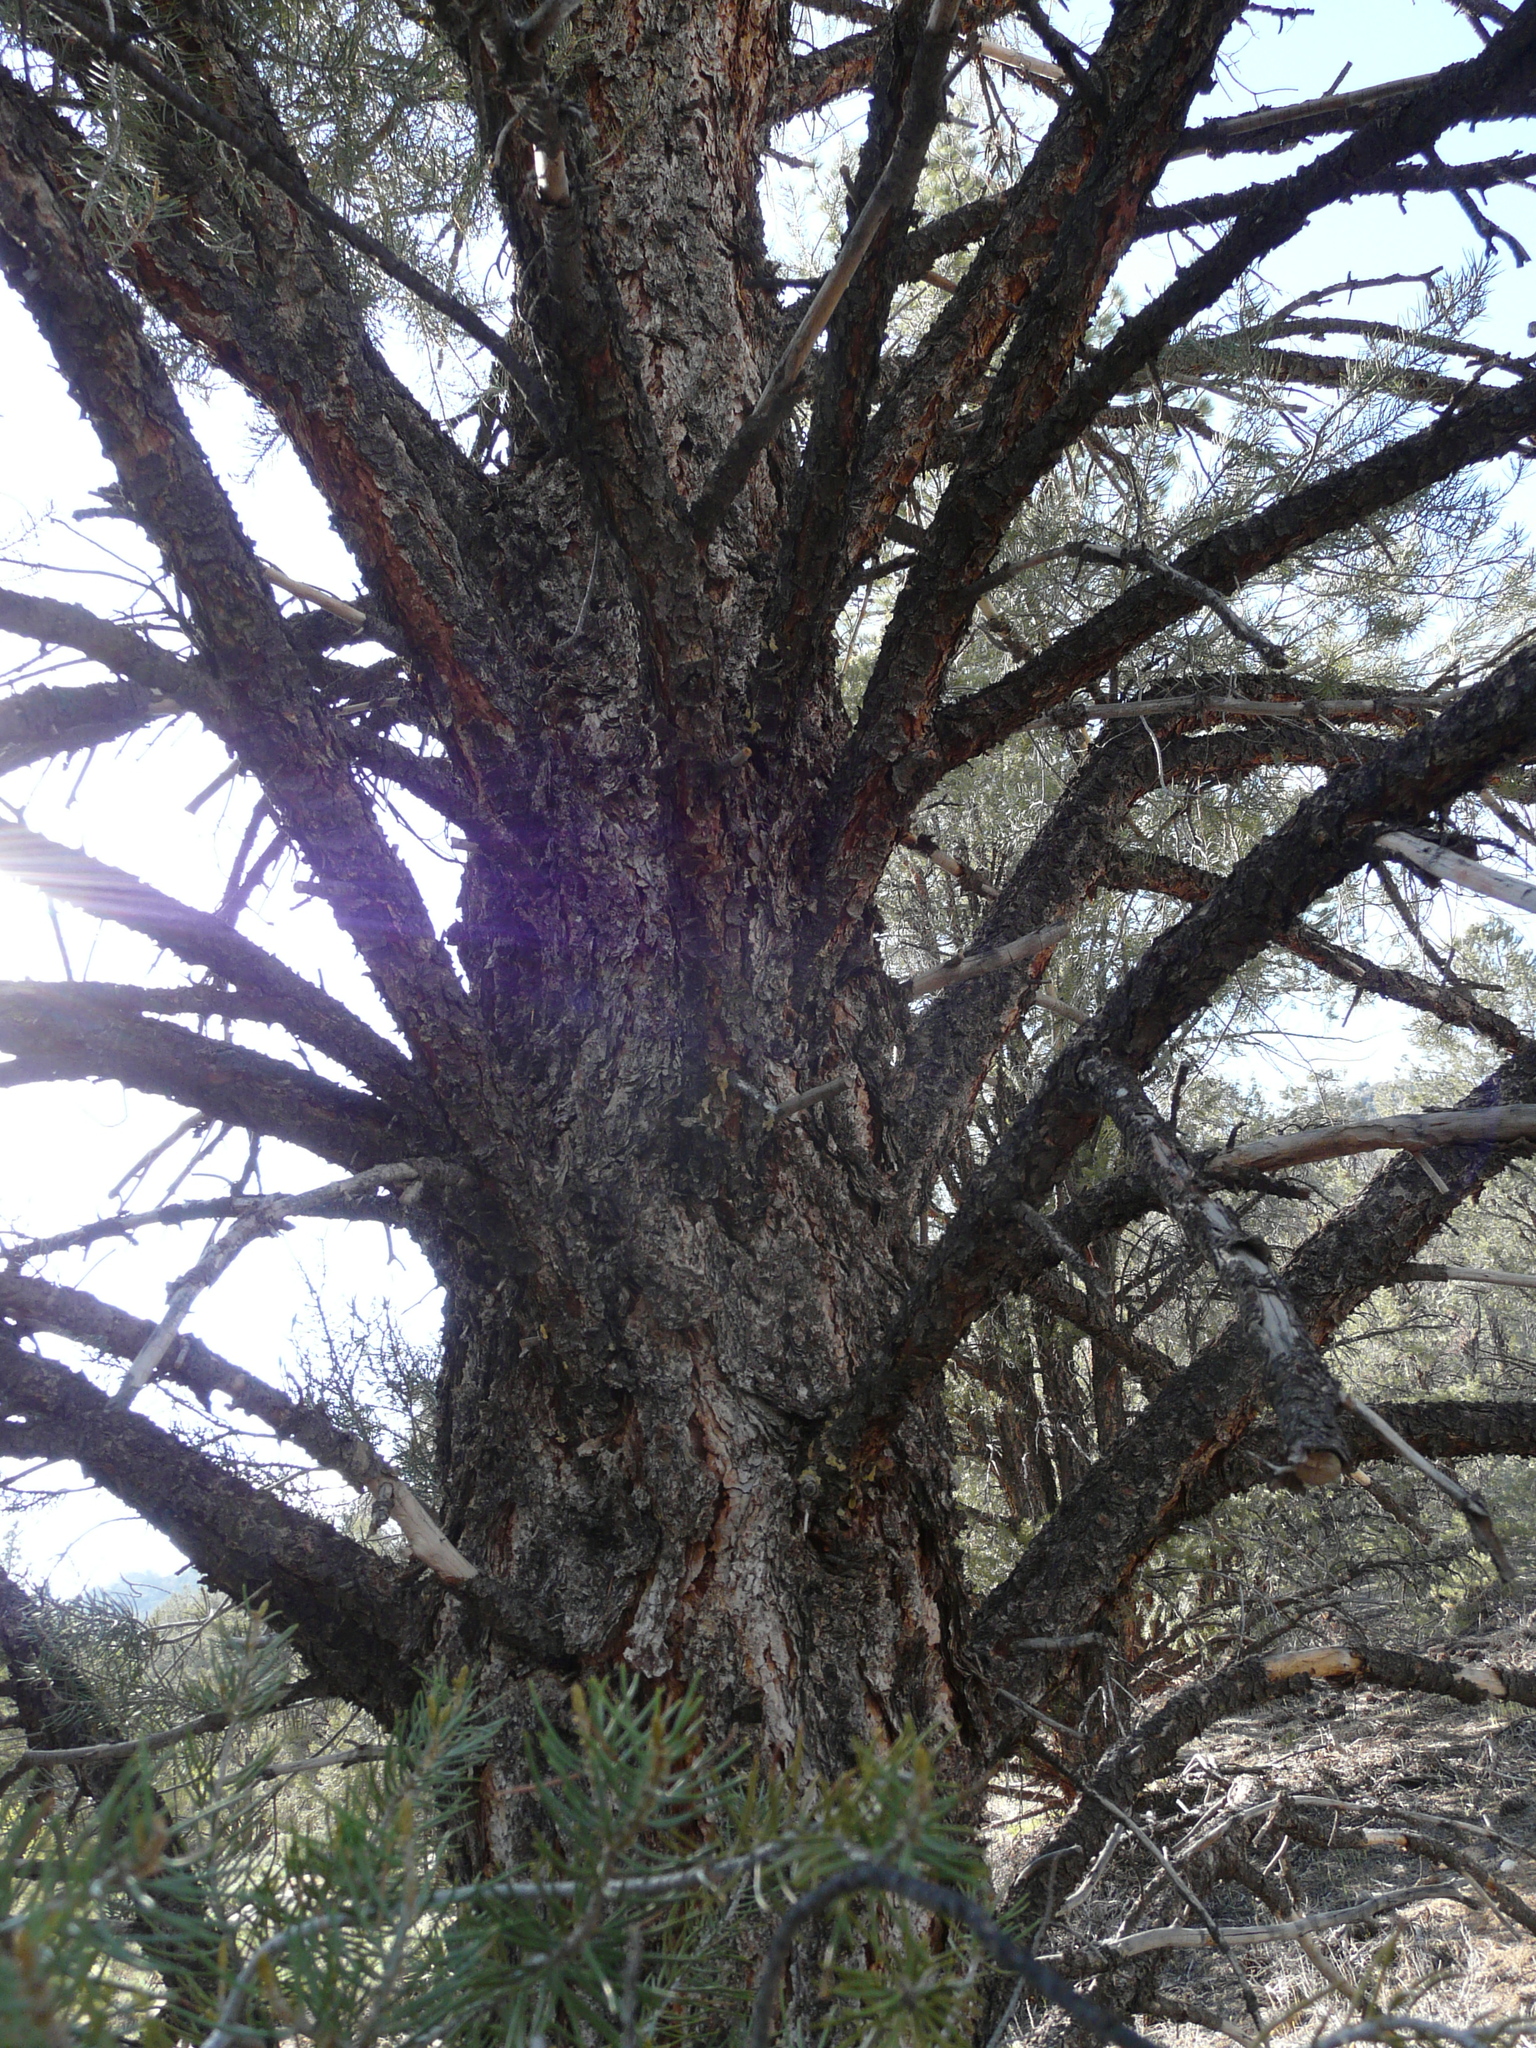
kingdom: Plantae
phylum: Tracheophyta
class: Pinopsida
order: Pinales
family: Pinaceae
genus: Pinus
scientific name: Pinus monophylla
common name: One-leaved nut pine
